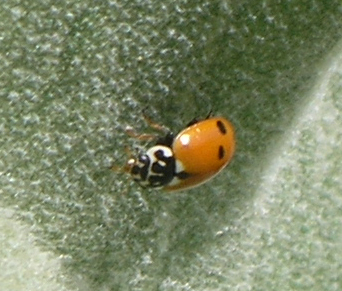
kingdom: Animalia
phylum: Arthropoda
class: Insecta
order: Coleoptera
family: Coccinellidae
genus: Hippodamia
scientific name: Hippodamia variegata
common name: Ladybird beetle
